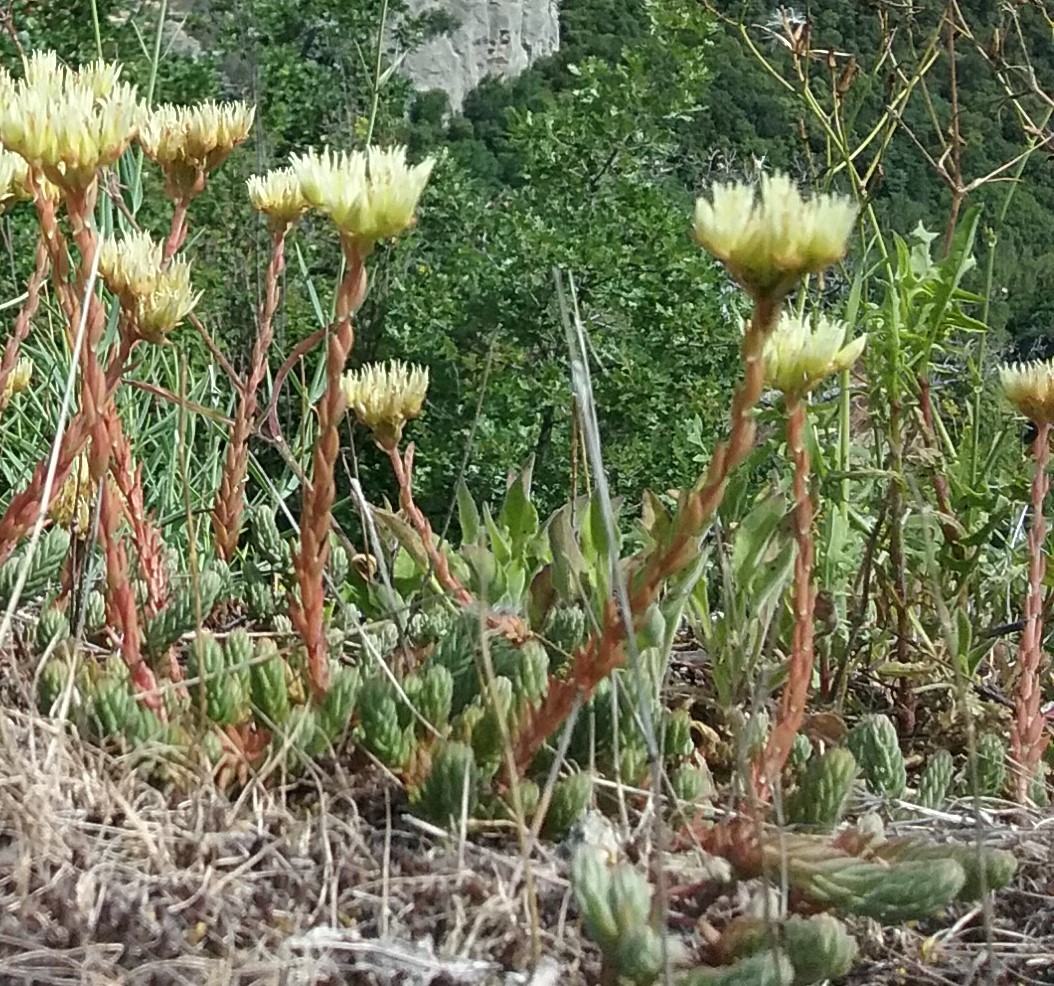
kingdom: Plantae
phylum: Tracheophyta
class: Magnoliopsida
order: Saxifragales
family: Crassulaceae
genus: Petrosedum
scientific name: Petrosedum ochroleucum
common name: European stonecrop
